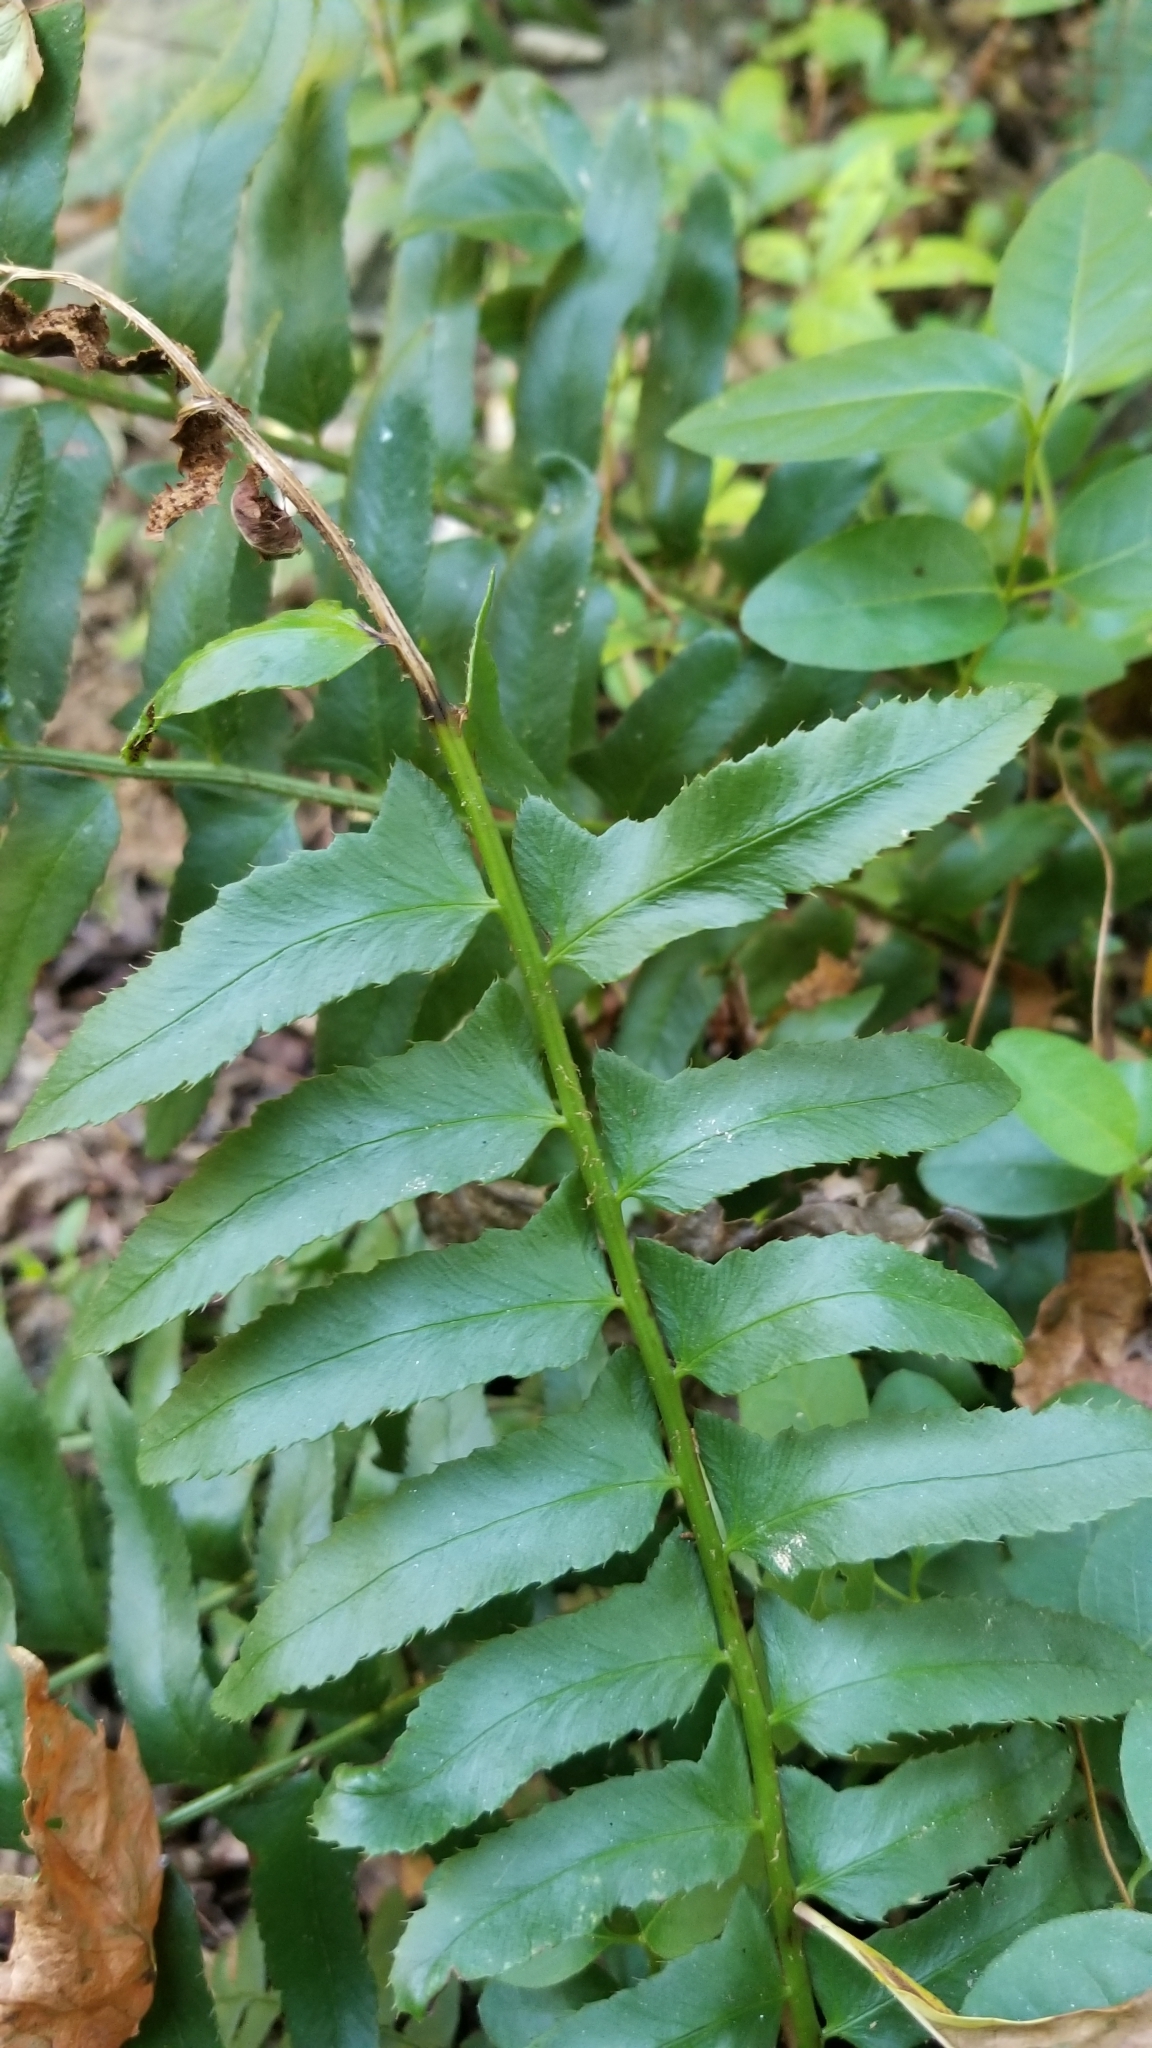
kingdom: Plantae
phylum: Tracheophyta
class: Polypodiopsida
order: Polypodiales
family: Dryopteridaceae
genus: Polystichum
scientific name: Polystichum acrostichoides
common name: Christmas fern
